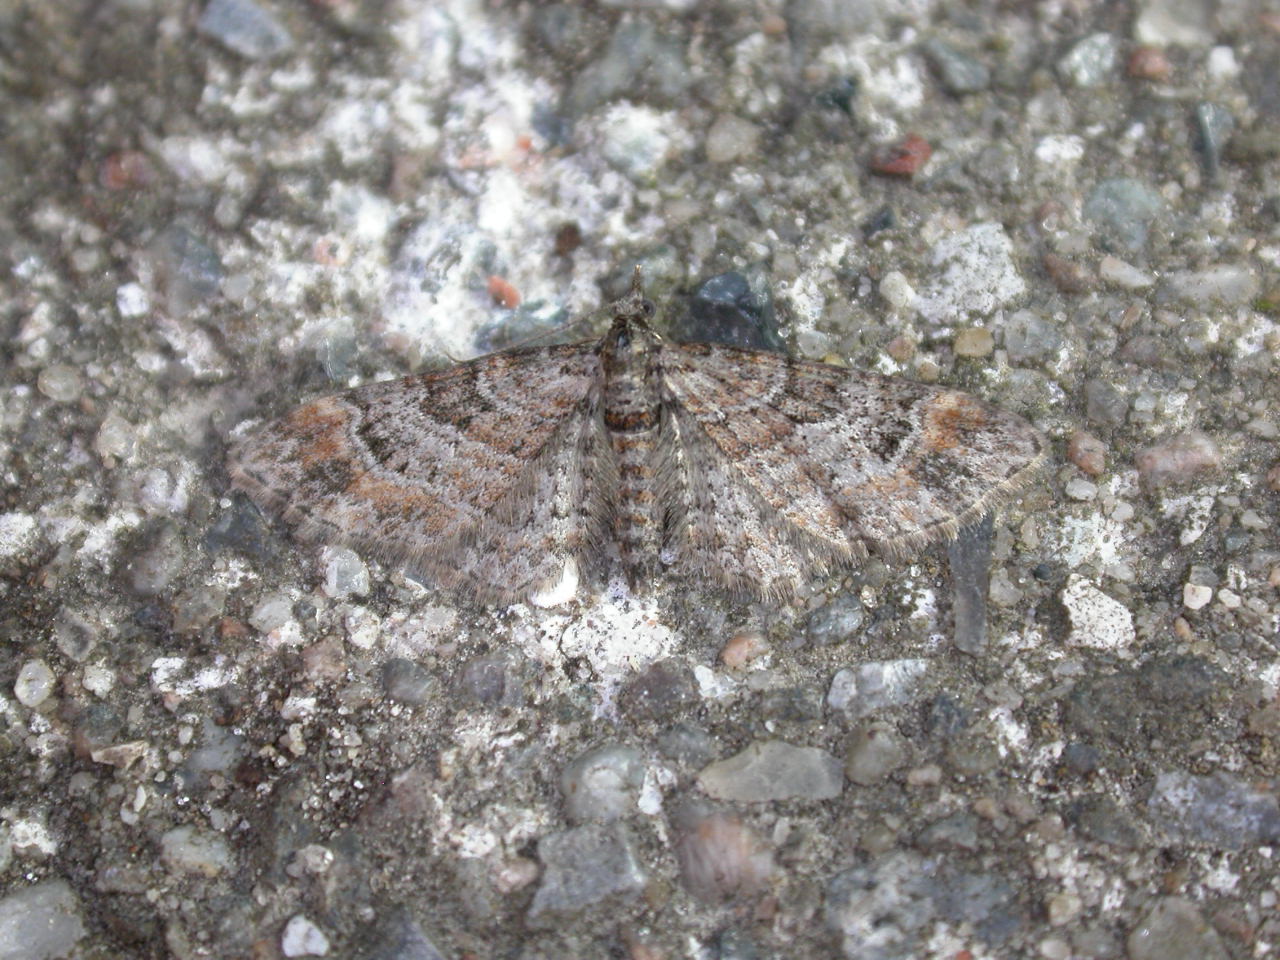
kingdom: Animalia
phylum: Arthropoda
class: Insecta
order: Lepidoptera
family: Geometridae
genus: Gymnoscelis
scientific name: Gymnoscelis rufifasciata
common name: Double-striped pug
